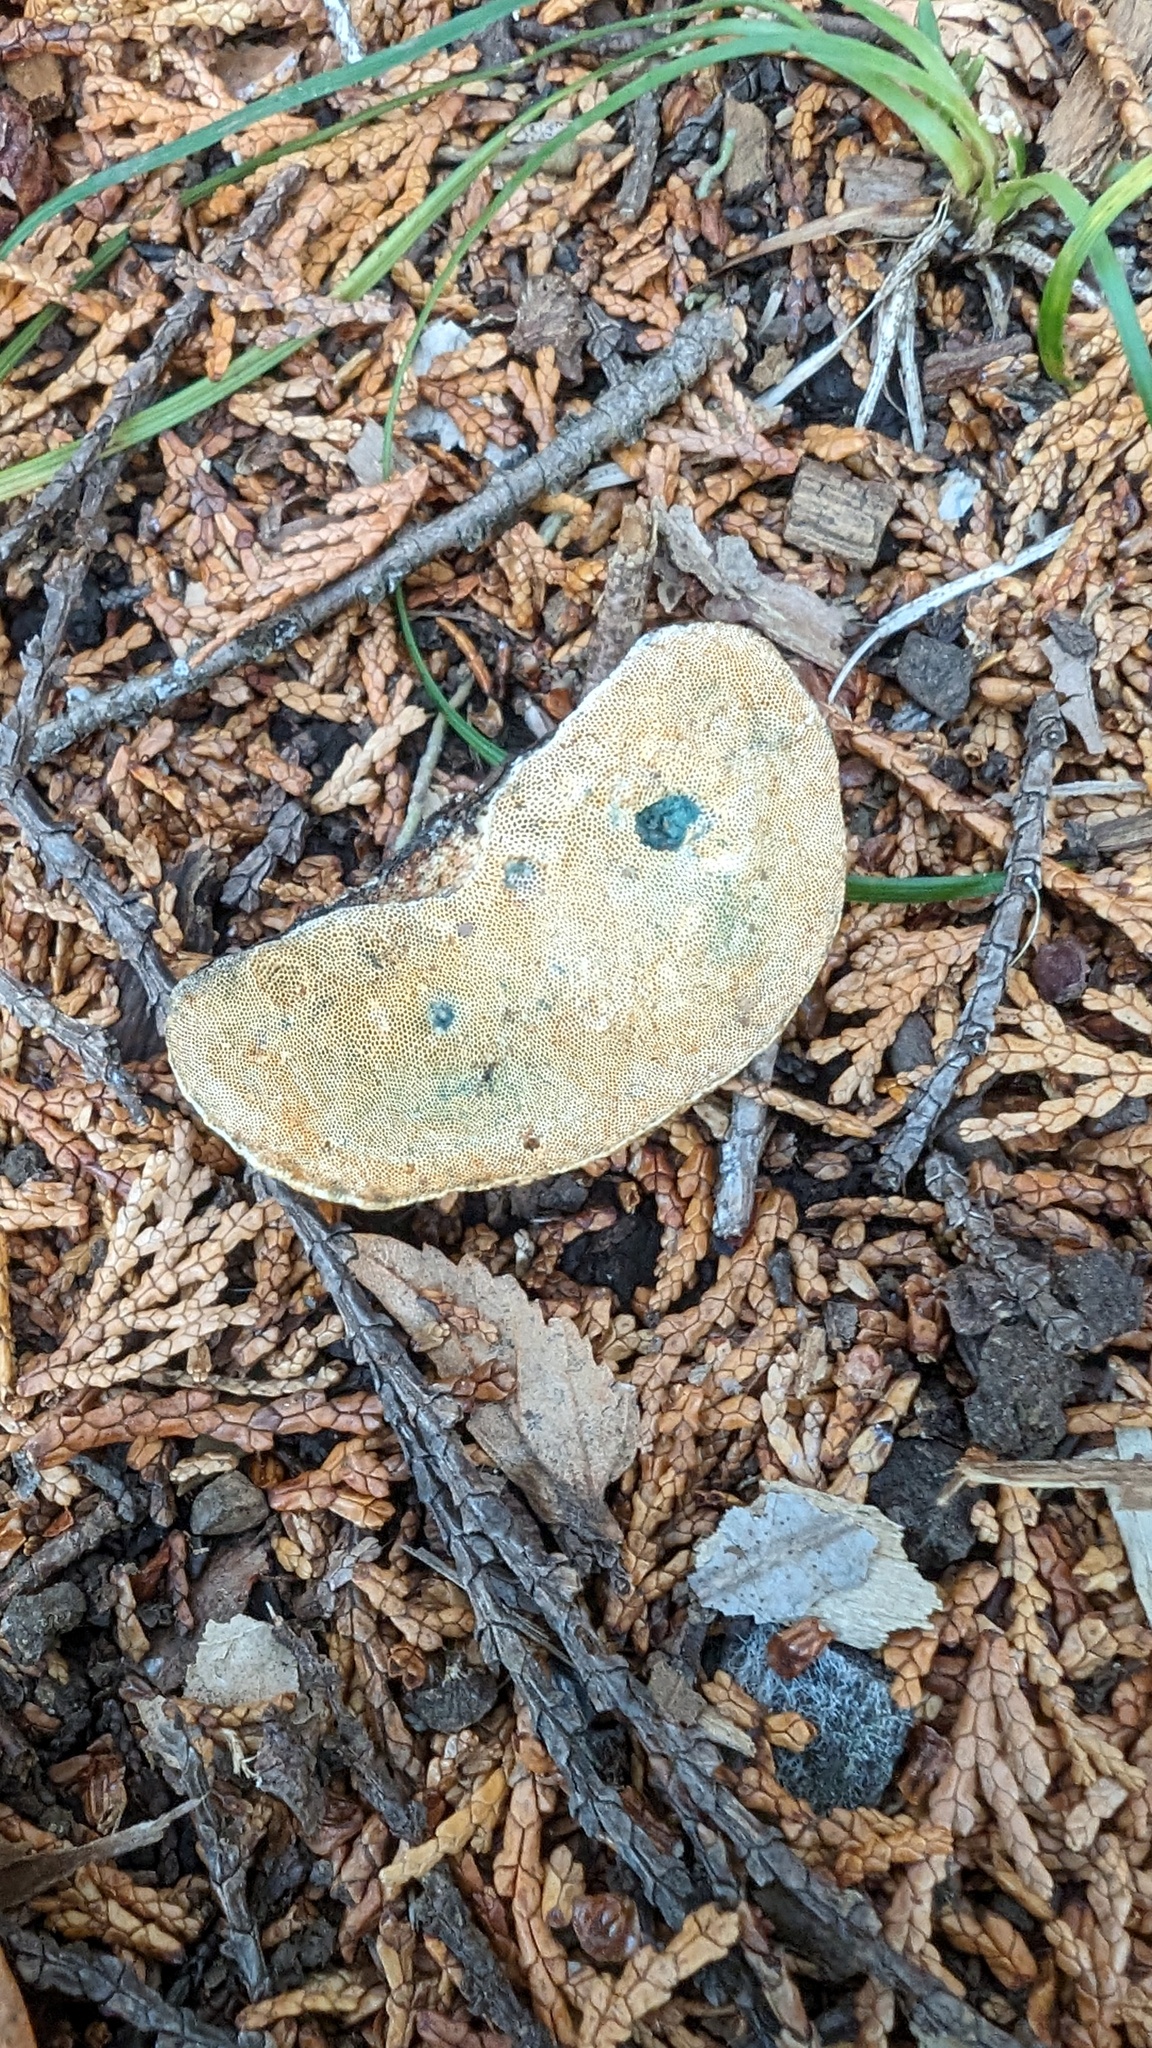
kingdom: Fungi
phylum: Basidiomycota
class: Agaricomycetes
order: Polyporales
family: Polyporaceae
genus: Truncospora
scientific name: Truncospora ochroleuca
